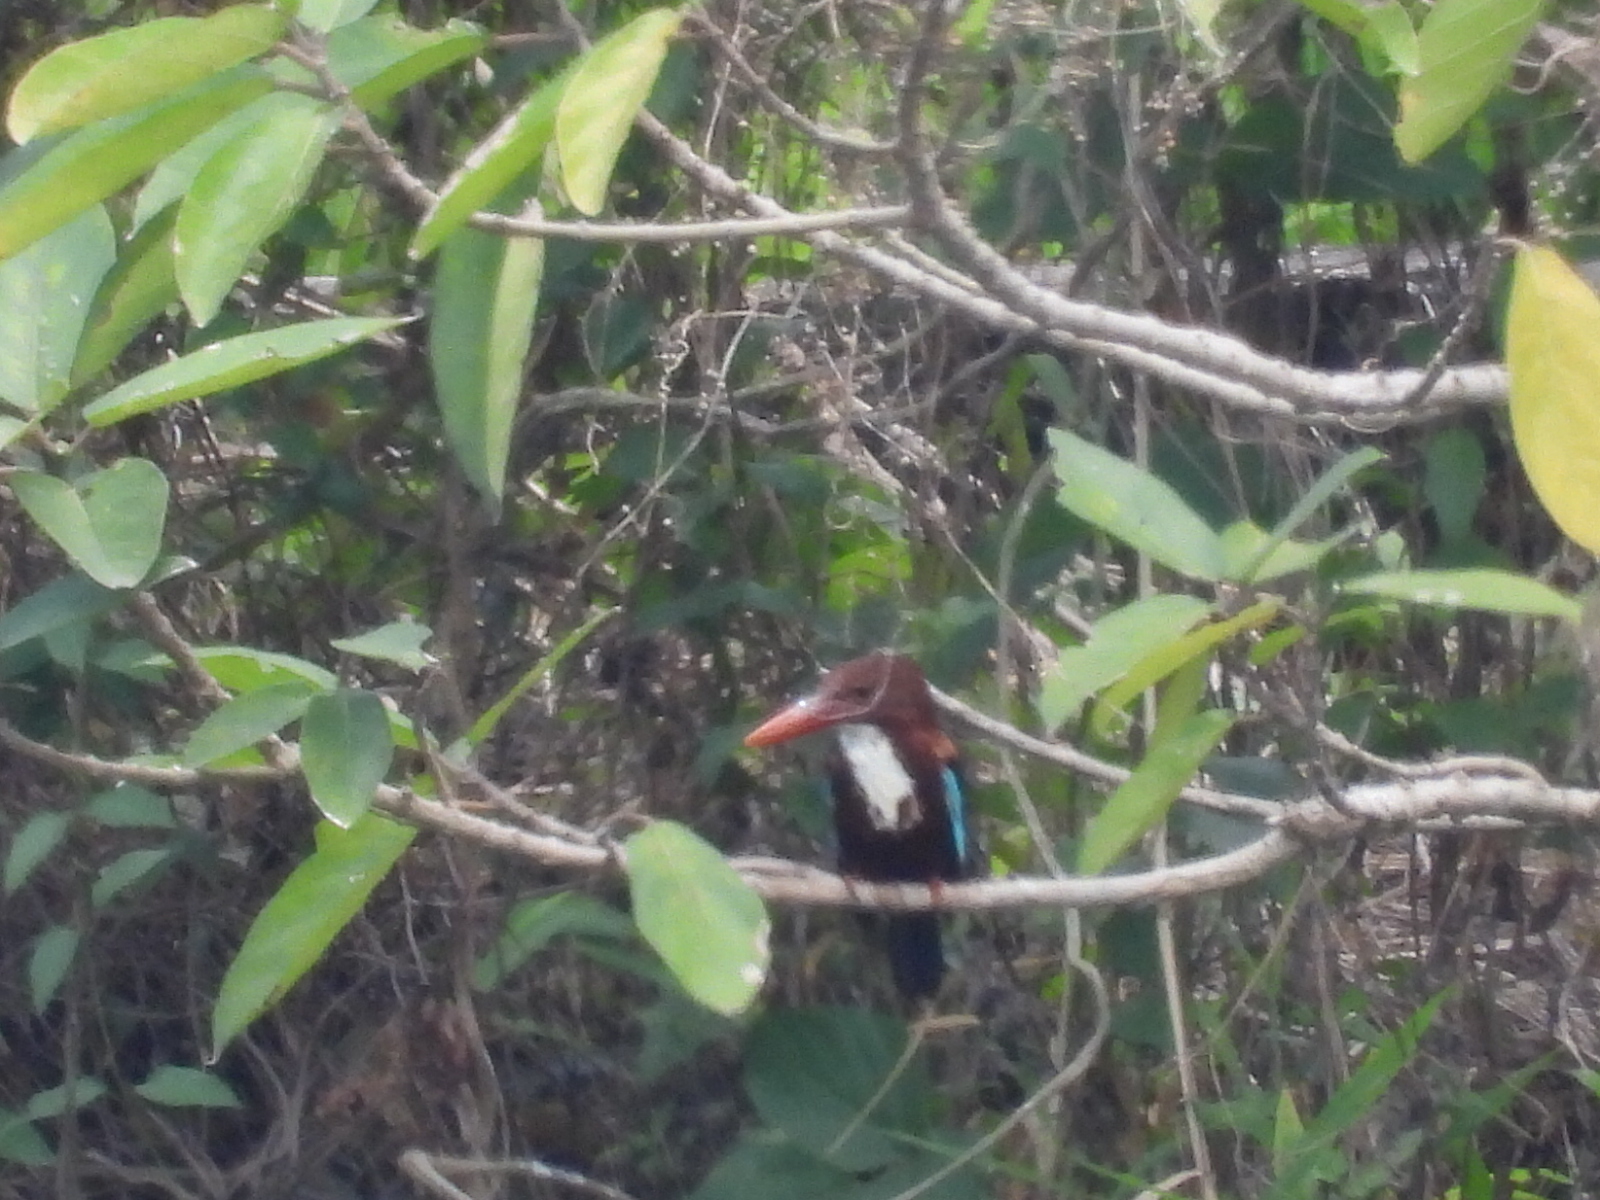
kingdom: Animalia
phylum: Chordata
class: Aves
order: Coraciiformes
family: Alcedinidae
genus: Halcyon
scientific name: Halcyon smyrnensis
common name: White-throated kingfisher
